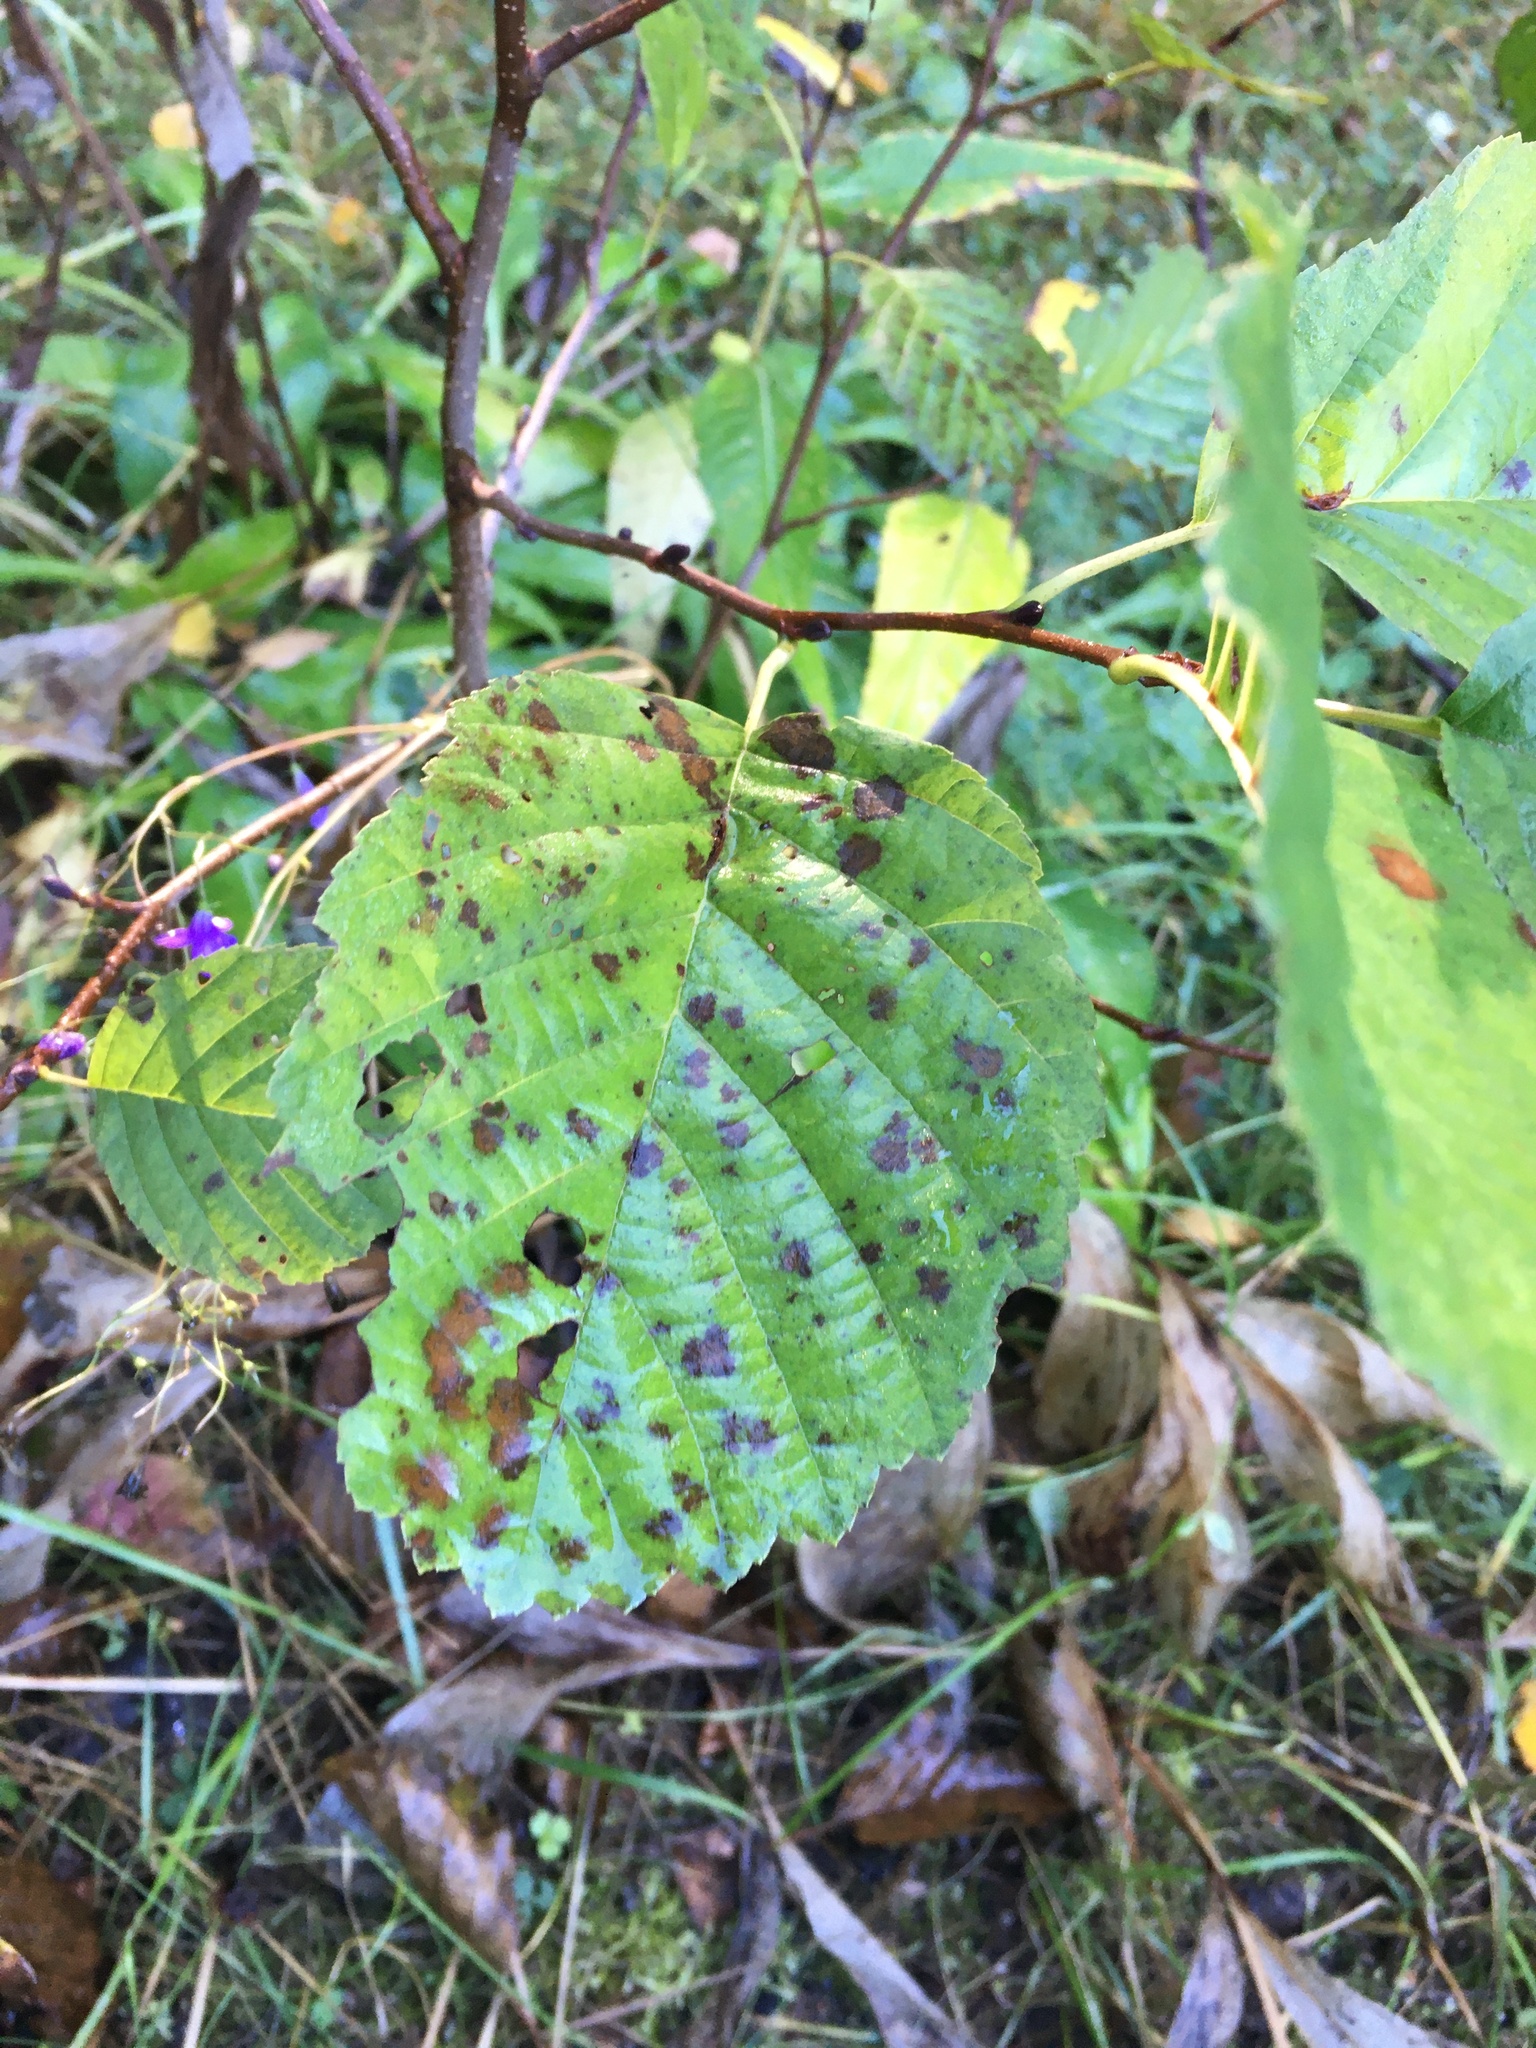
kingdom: Plantae
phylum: Tracheophyta
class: Magnoliopsida
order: Fagales
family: Betulaceae
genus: Alnus
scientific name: Alnus incana
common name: Grey alder
